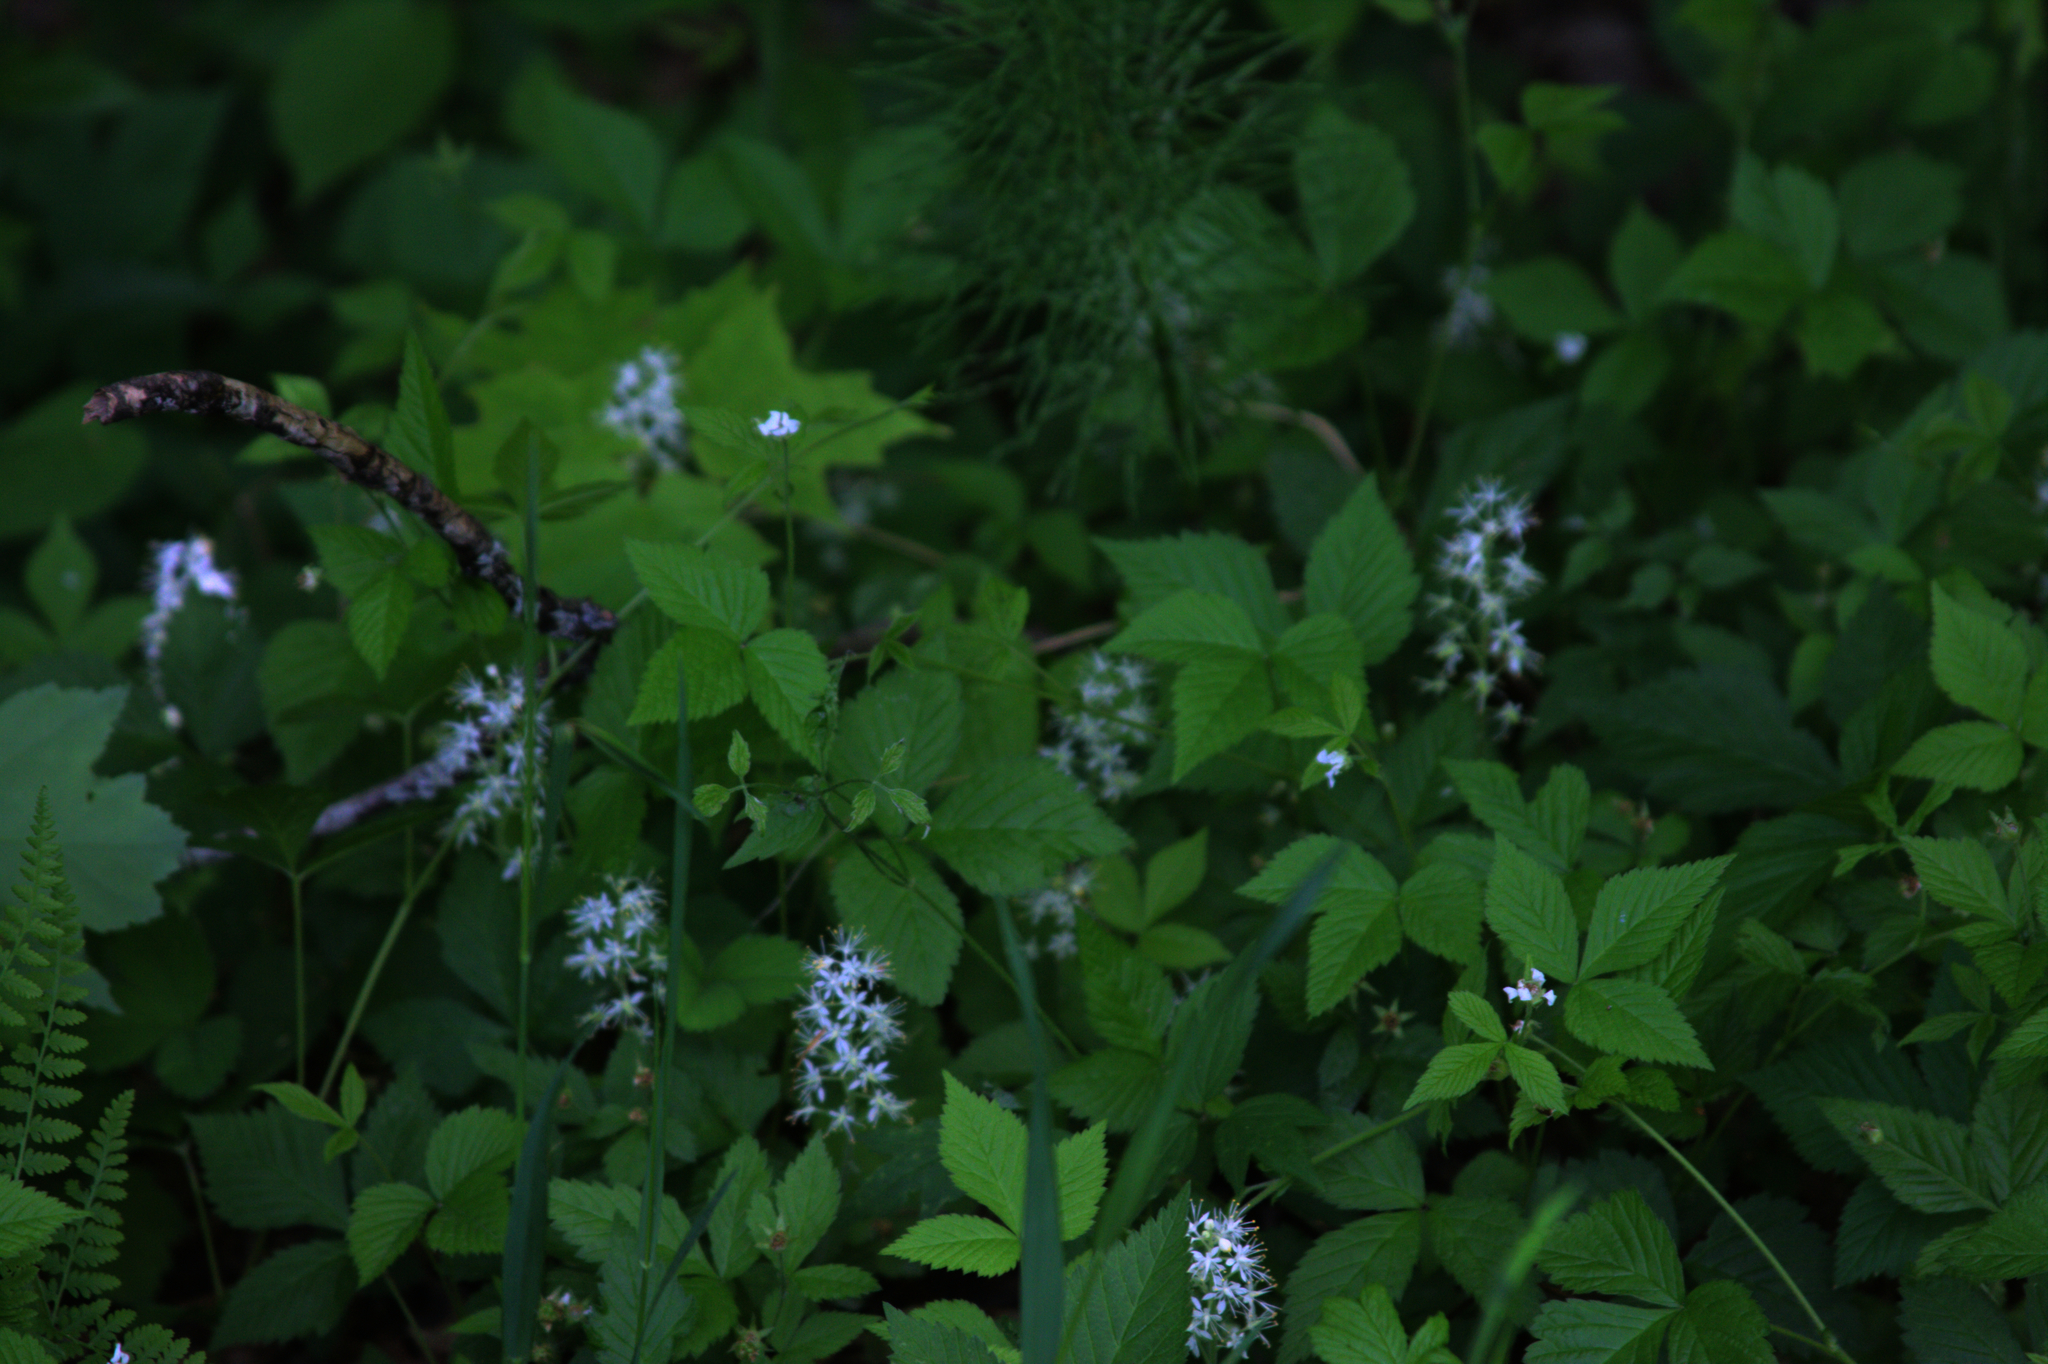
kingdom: Plantae
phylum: Tracheophyta
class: Magnoliopsida
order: Saxifragales
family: Saxifragaceae
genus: Tiarella
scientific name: Tiarella stolonifera
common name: Stoloniferous foamflower
